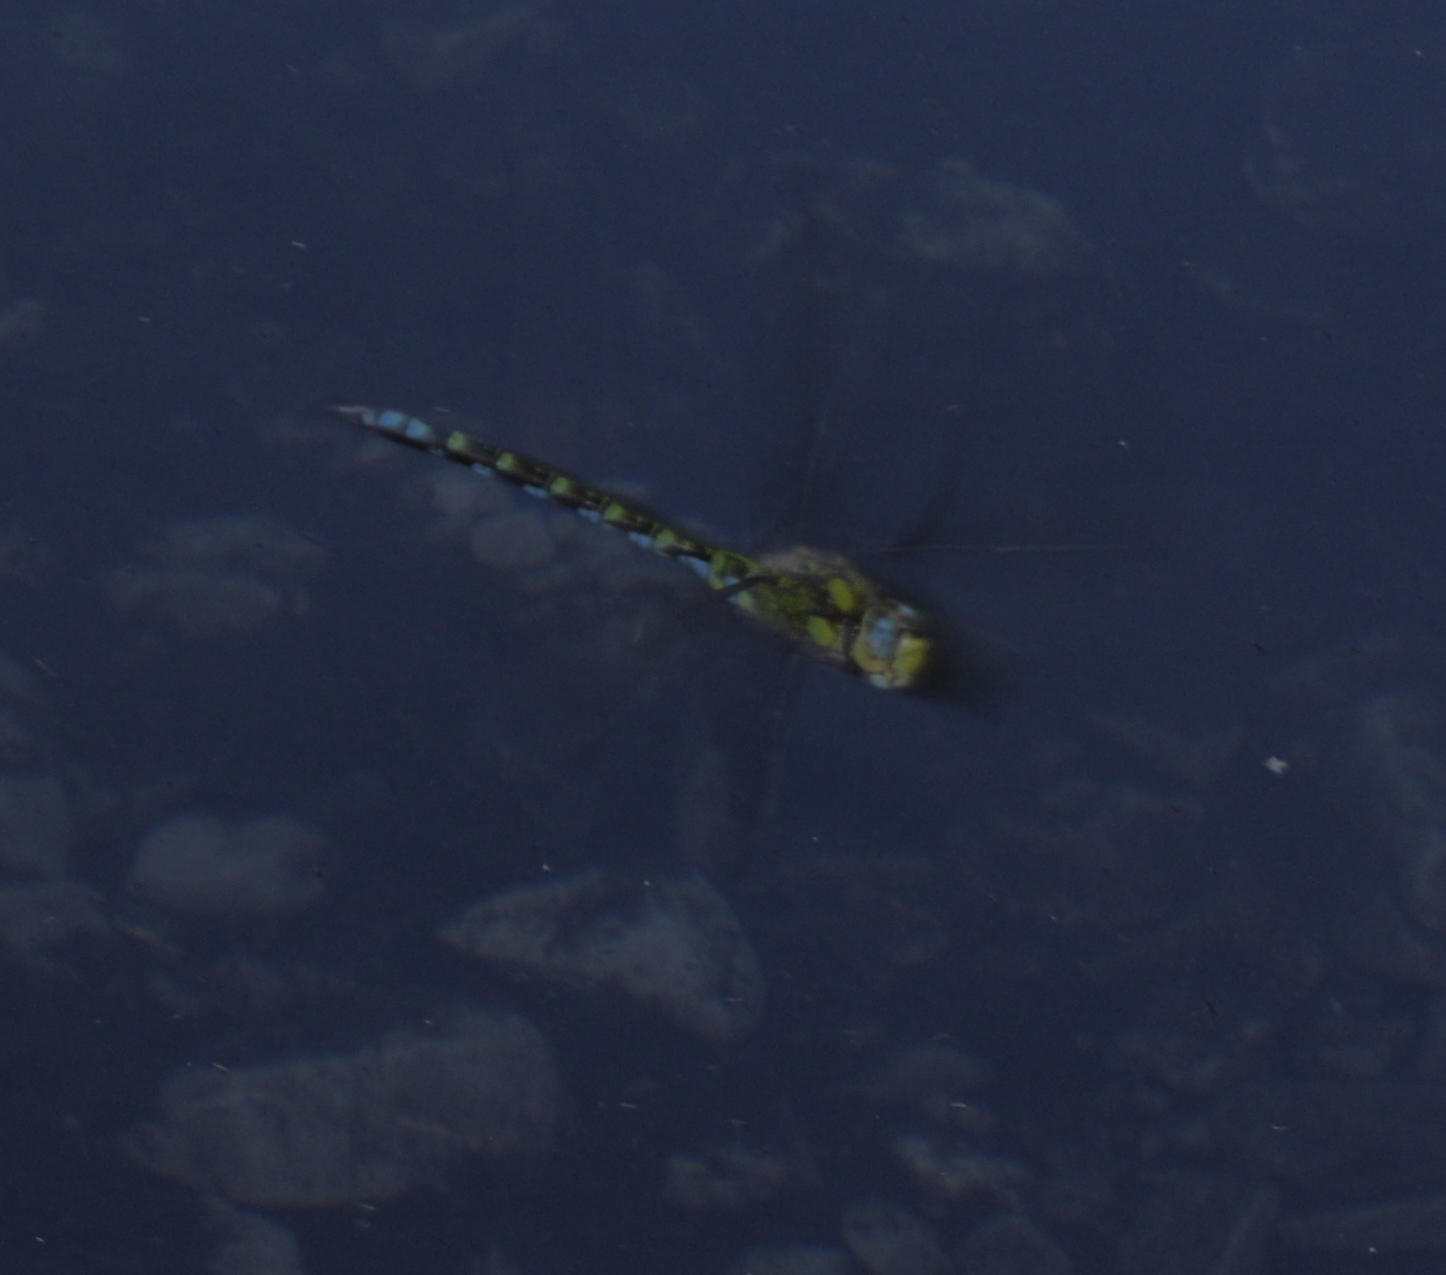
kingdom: Animalia
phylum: Arthropoda
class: Insecta
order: Odonata
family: Aeshnidae
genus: Aeshna
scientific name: Aeshna cyanea
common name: Southern hawker
